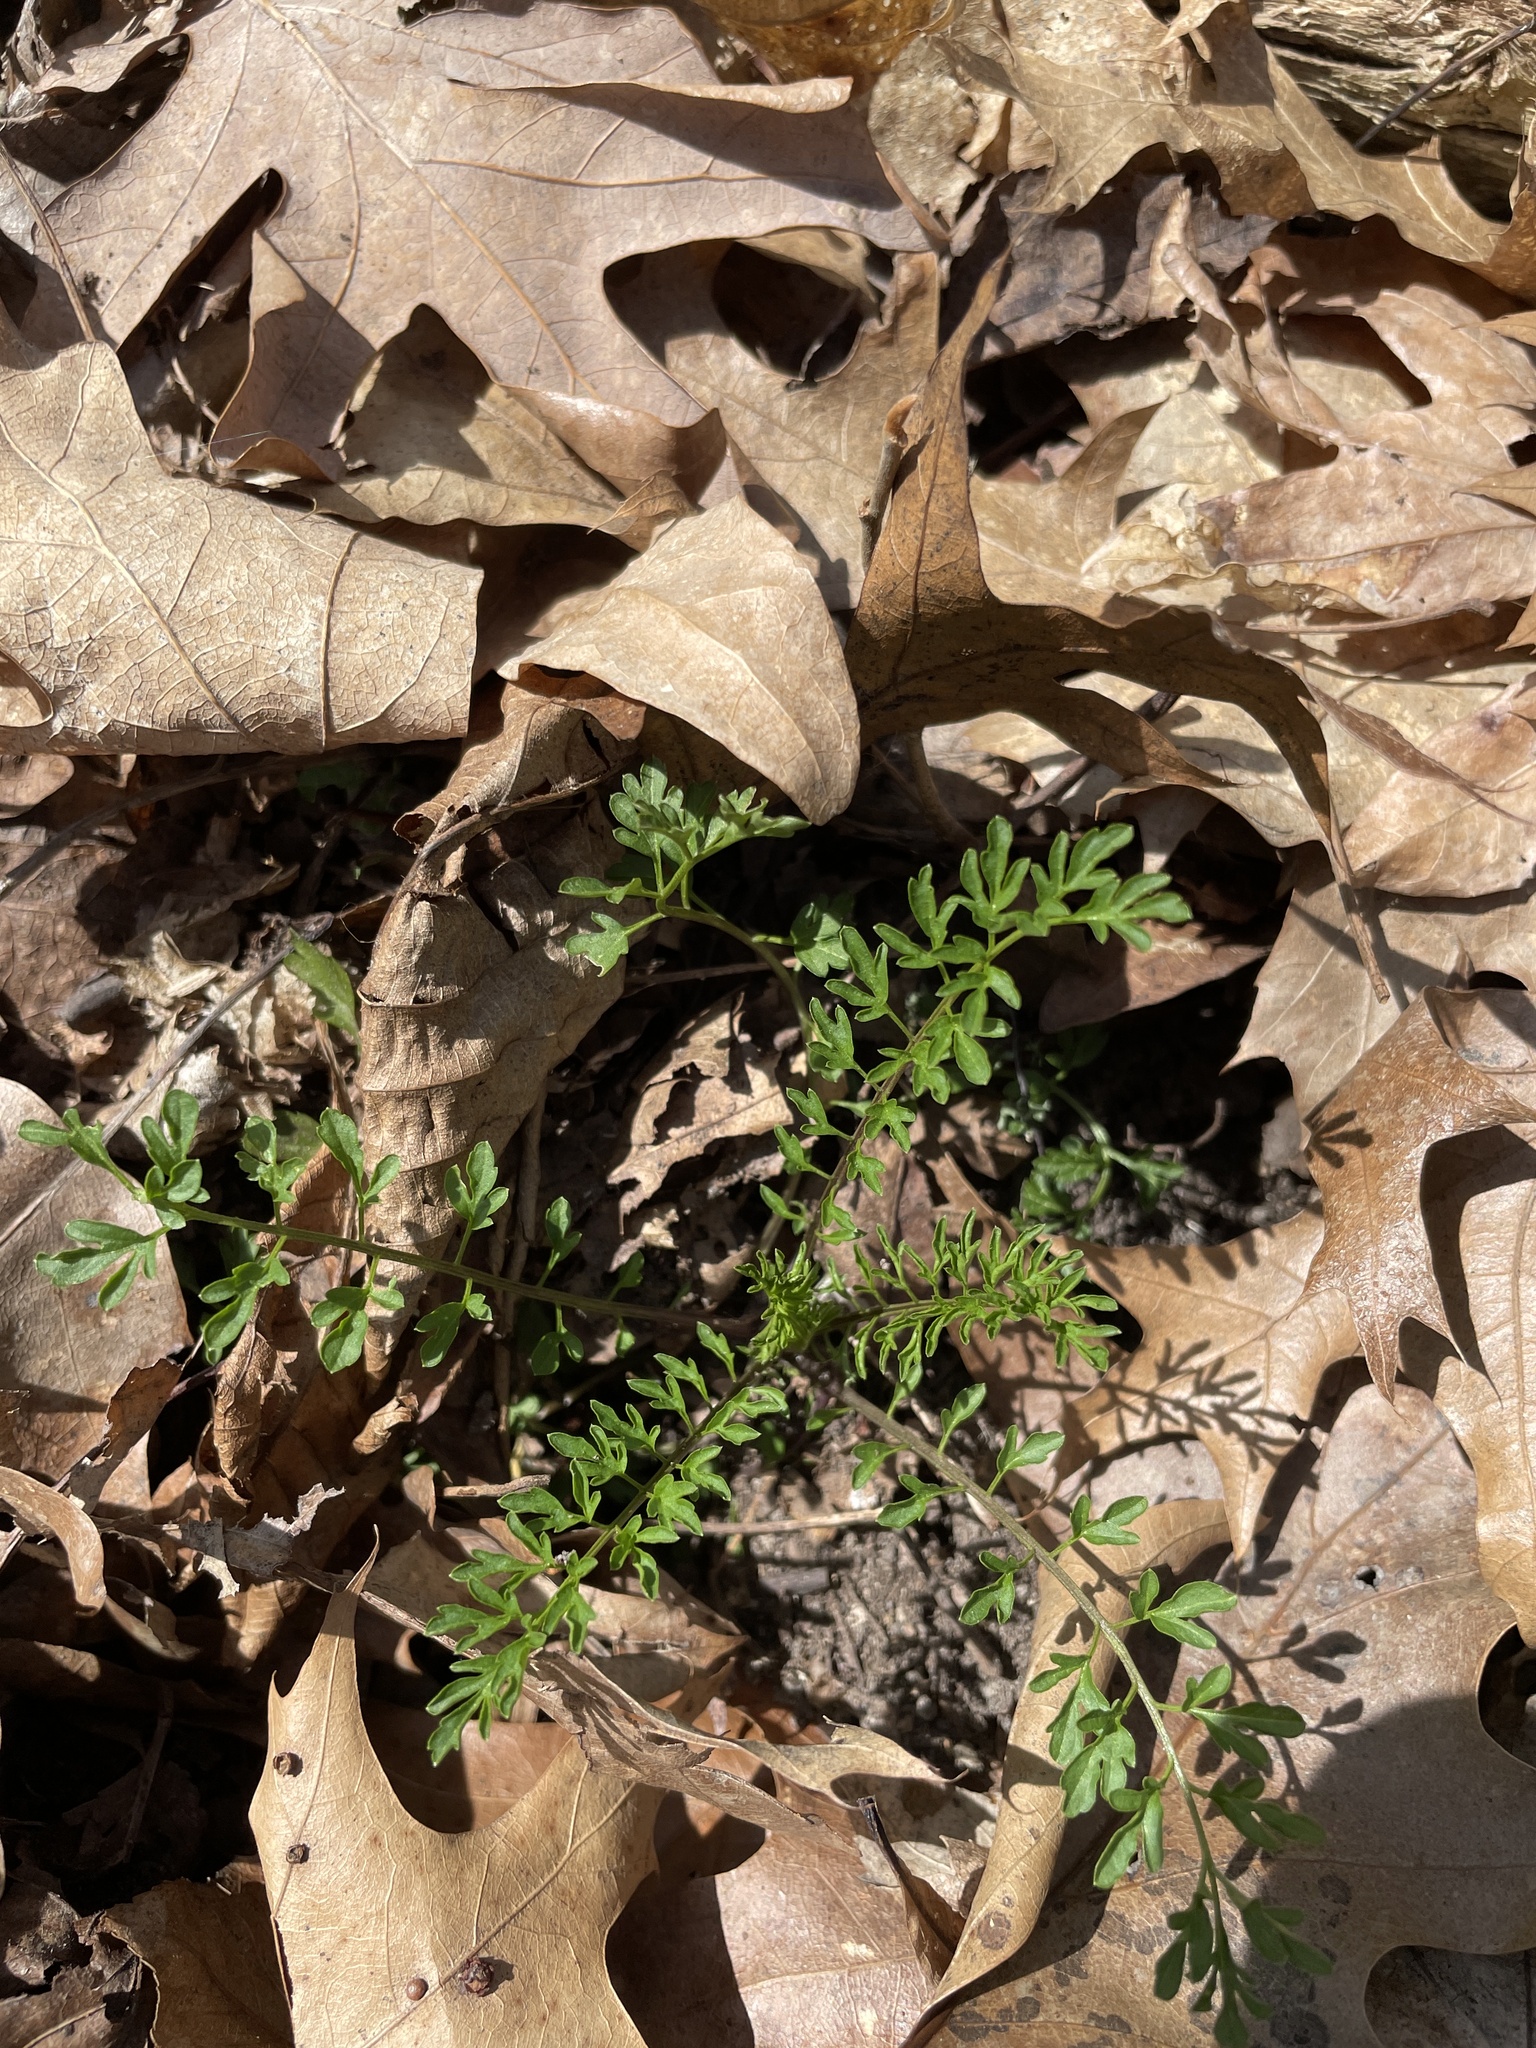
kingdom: Plantae
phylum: Tracheophyta
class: Magnoliopsida
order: Brassicales
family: Brassicaceae
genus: Cardamine
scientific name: Cardamine impatiens
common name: Narrow-leaved bitter-cress
